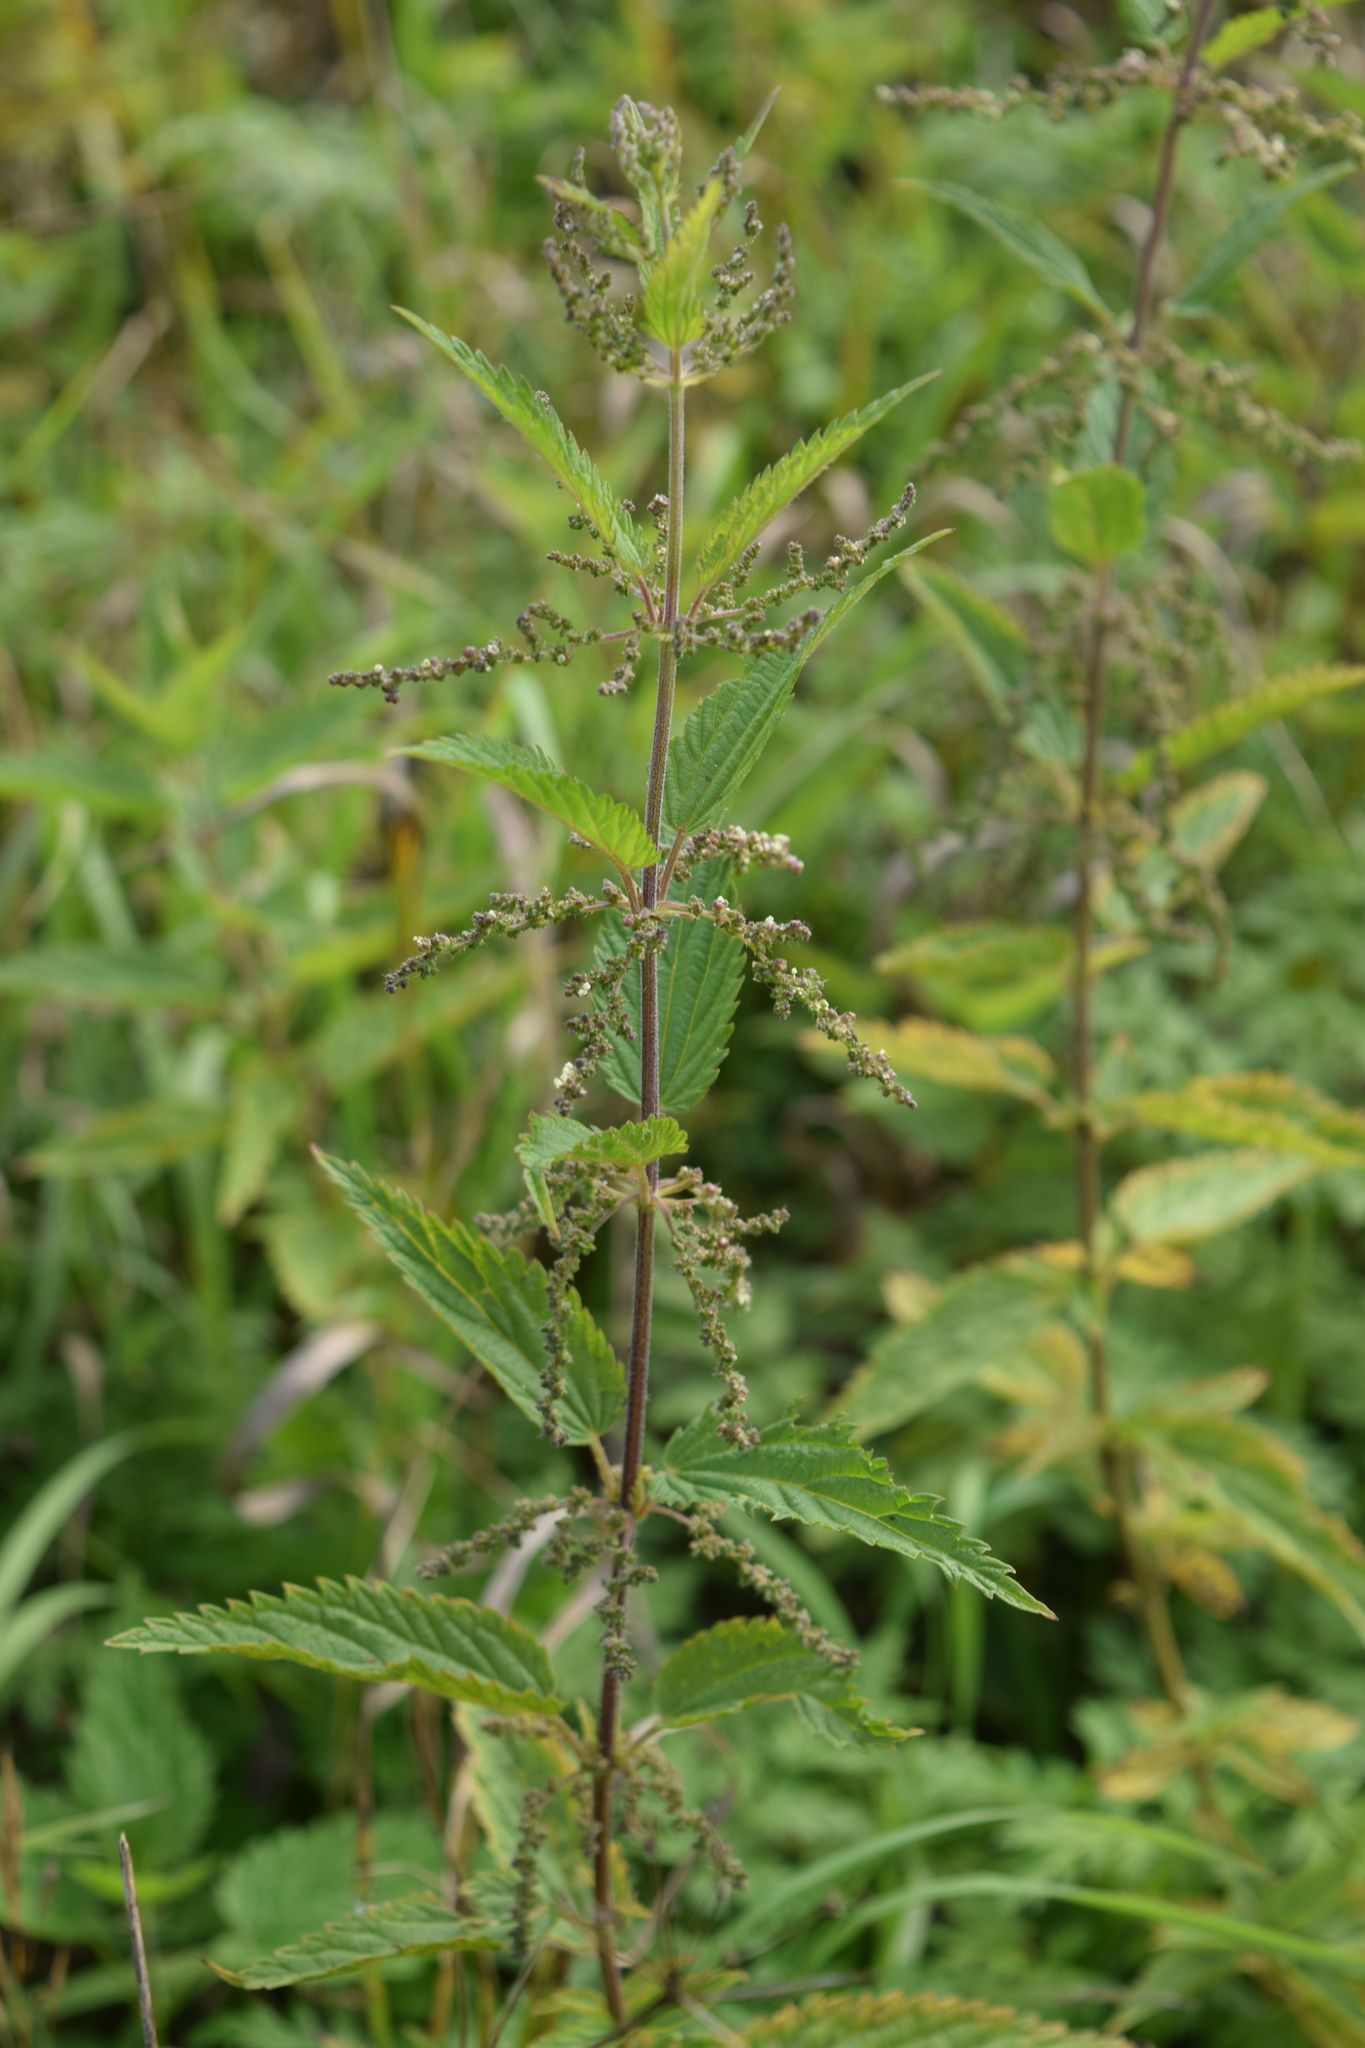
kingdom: Plantae
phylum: Tracheophyta
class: Magnoliopsida
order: Rosales
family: Urticaceae
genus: Urtica
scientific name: Urtica dioica
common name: Common nettle
